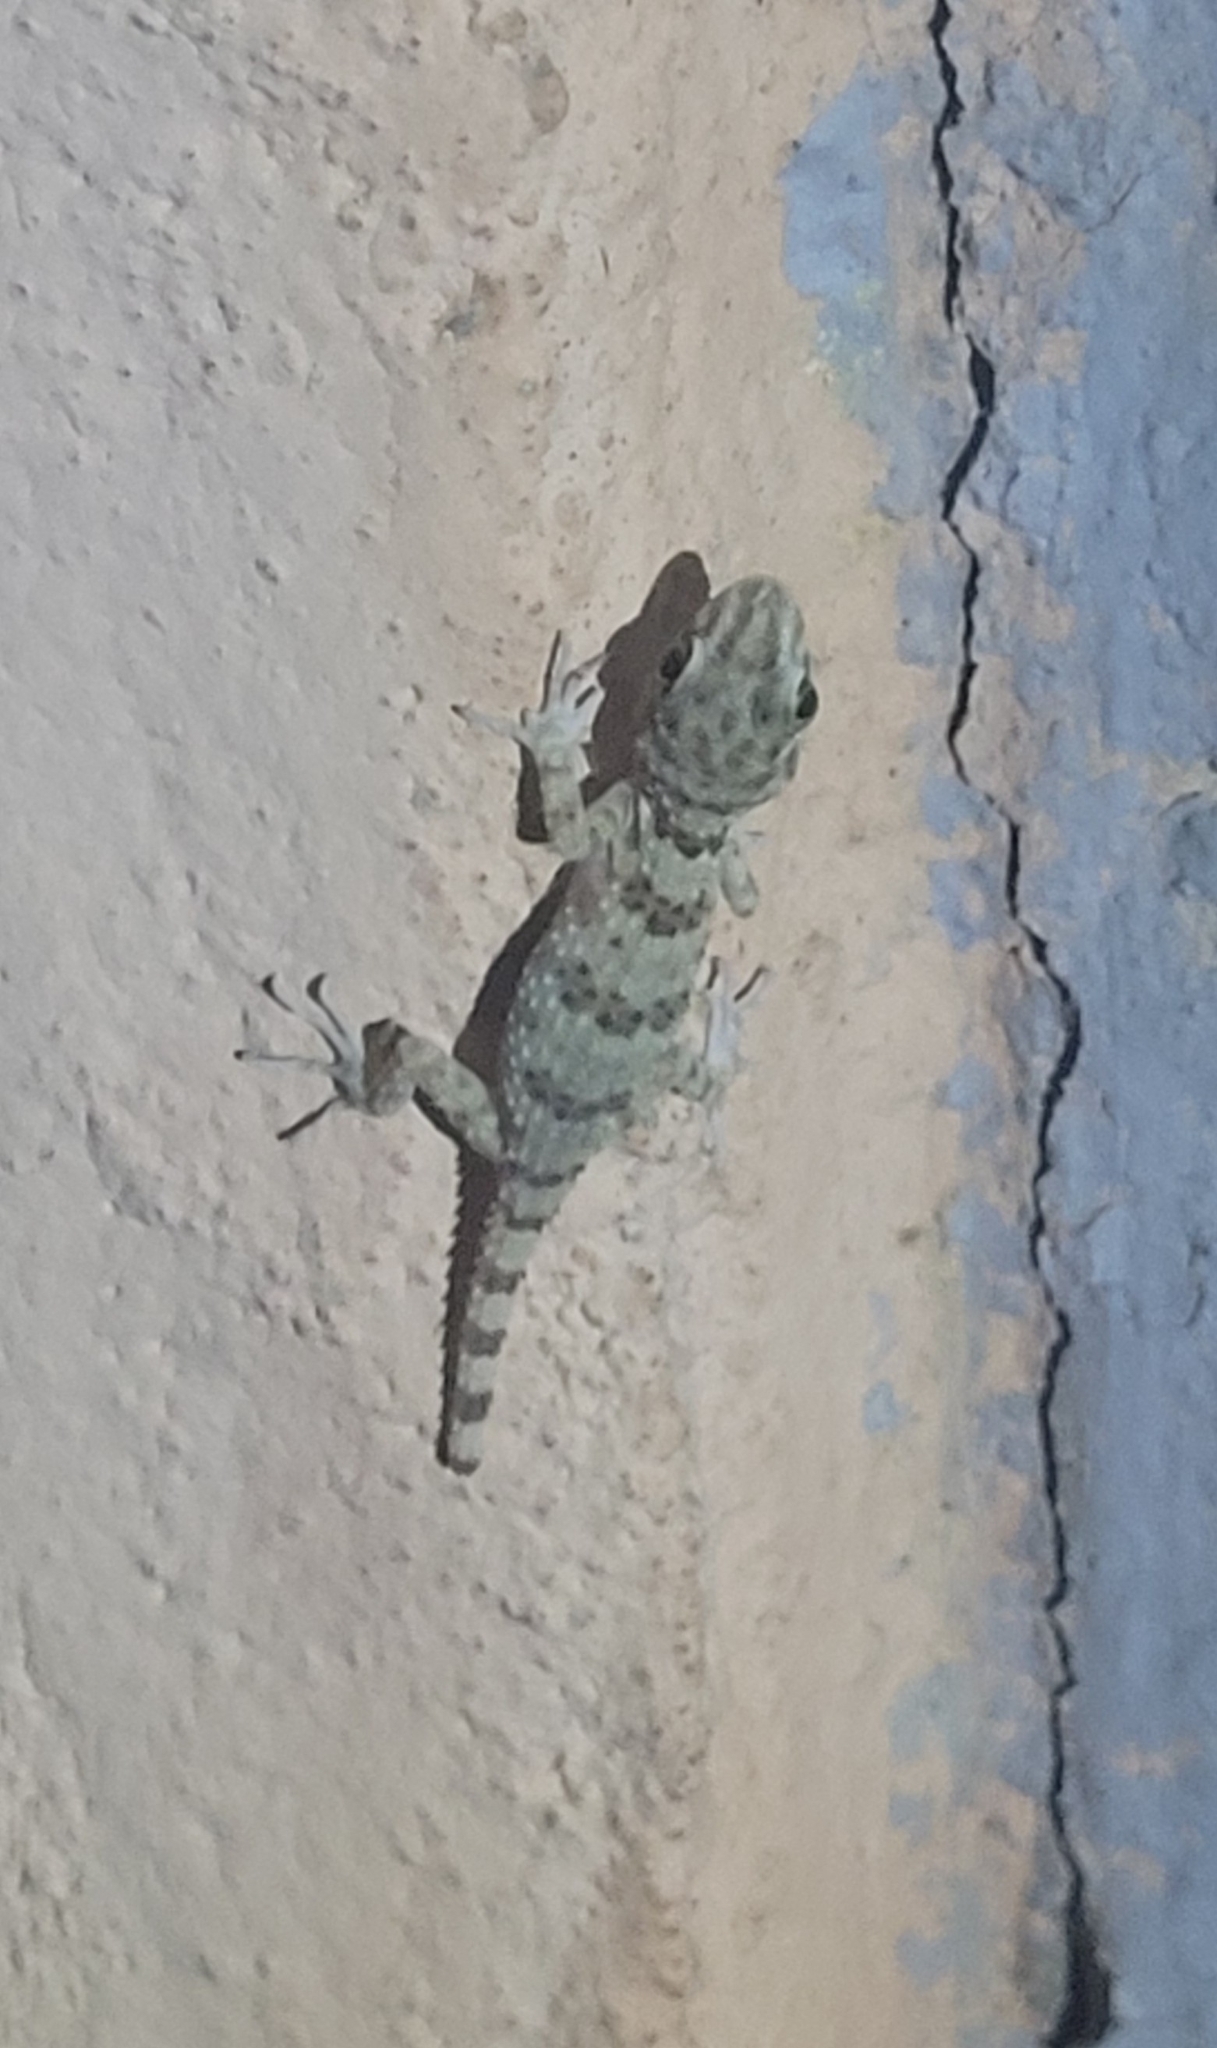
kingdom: Animalia
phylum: Chordata
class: Squamata
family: Gekkonidae
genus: Tenuidactylus
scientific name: Tenuidactylus caspius
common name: Caspian bent-toed gecko
